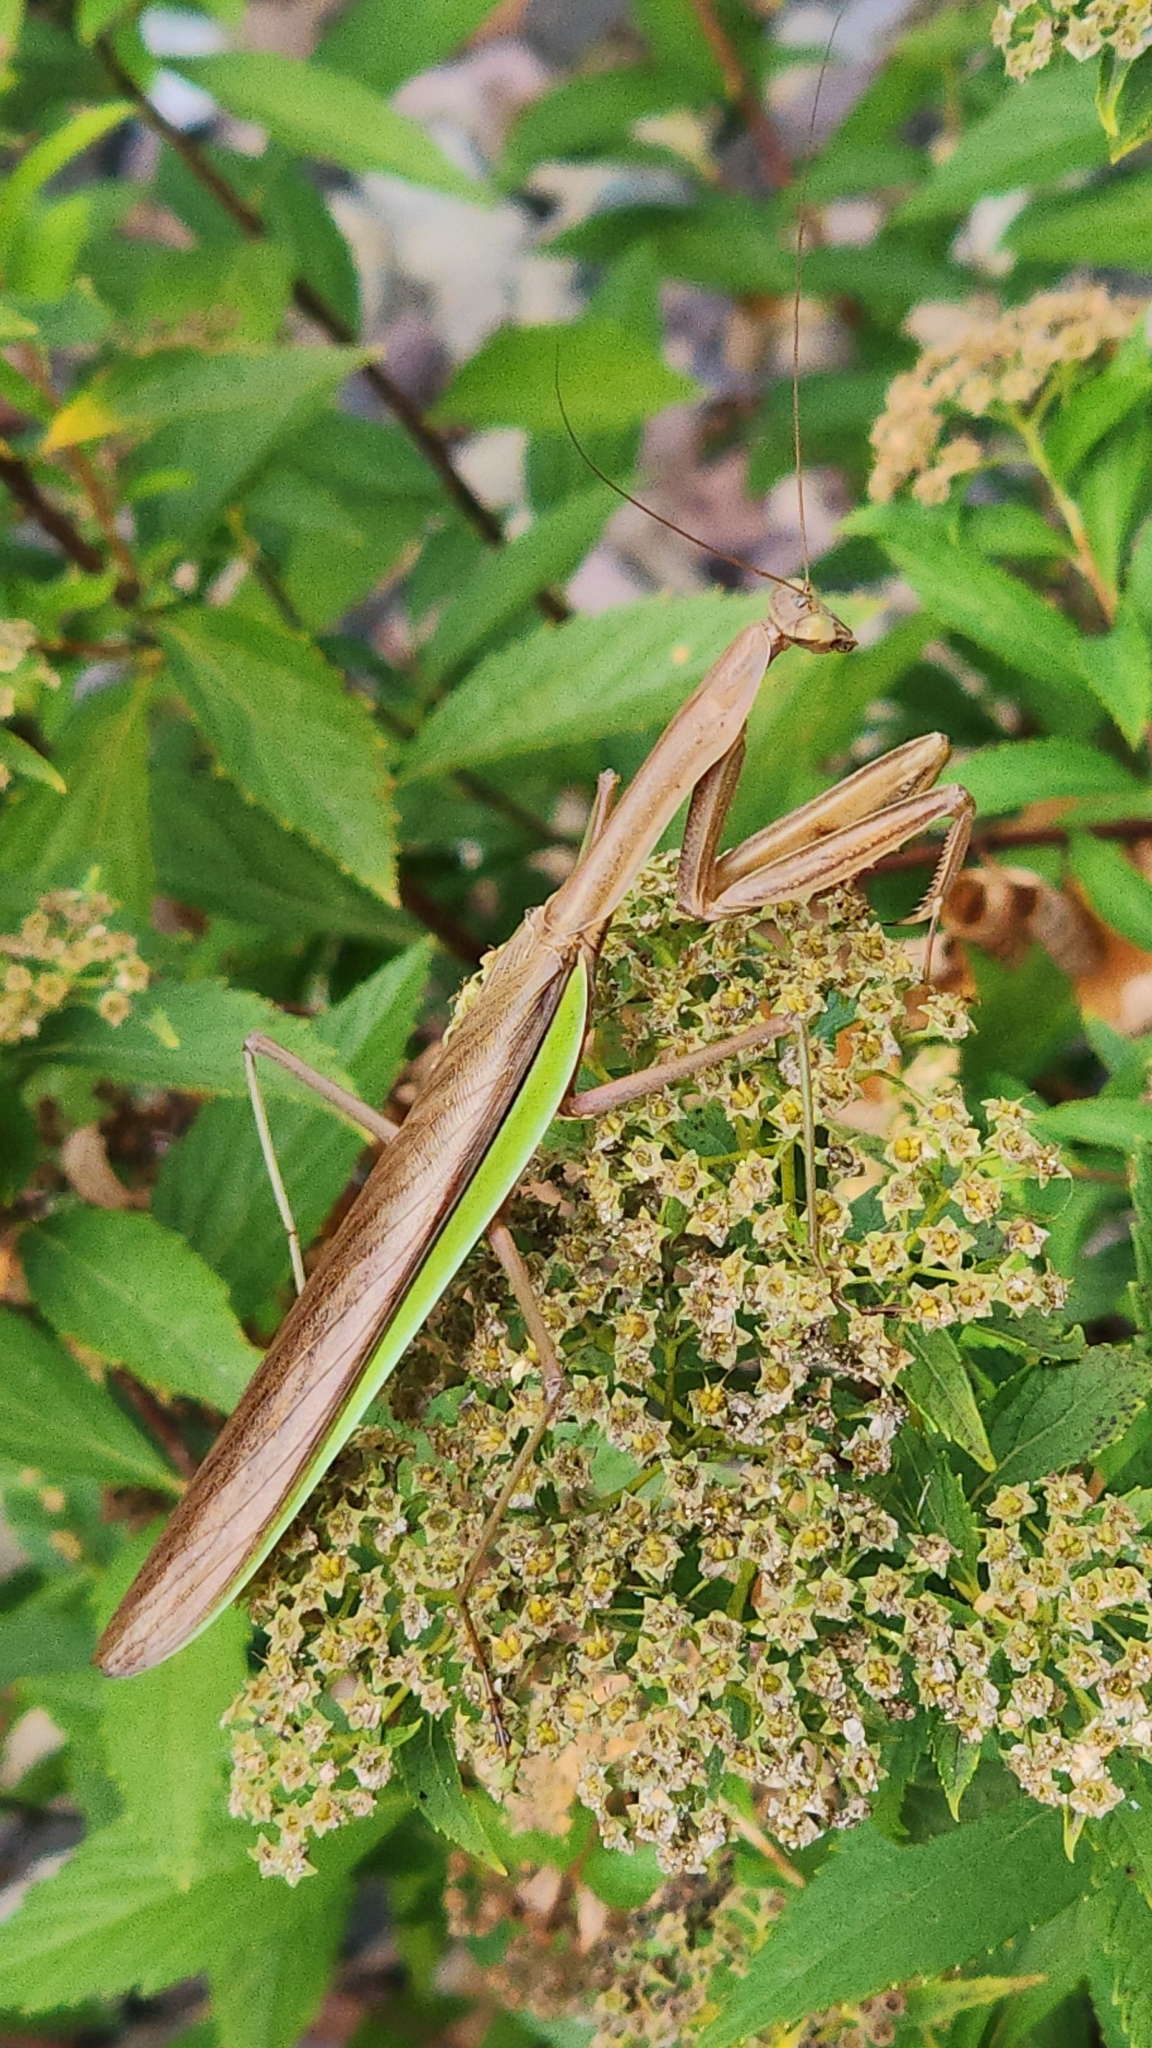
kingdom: Animalia
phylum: Arthropoda
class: Insecta
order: Mantodea
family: Mantidae
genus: Tenodera
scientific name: Tenodera sinensis
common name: Chinese mantis
